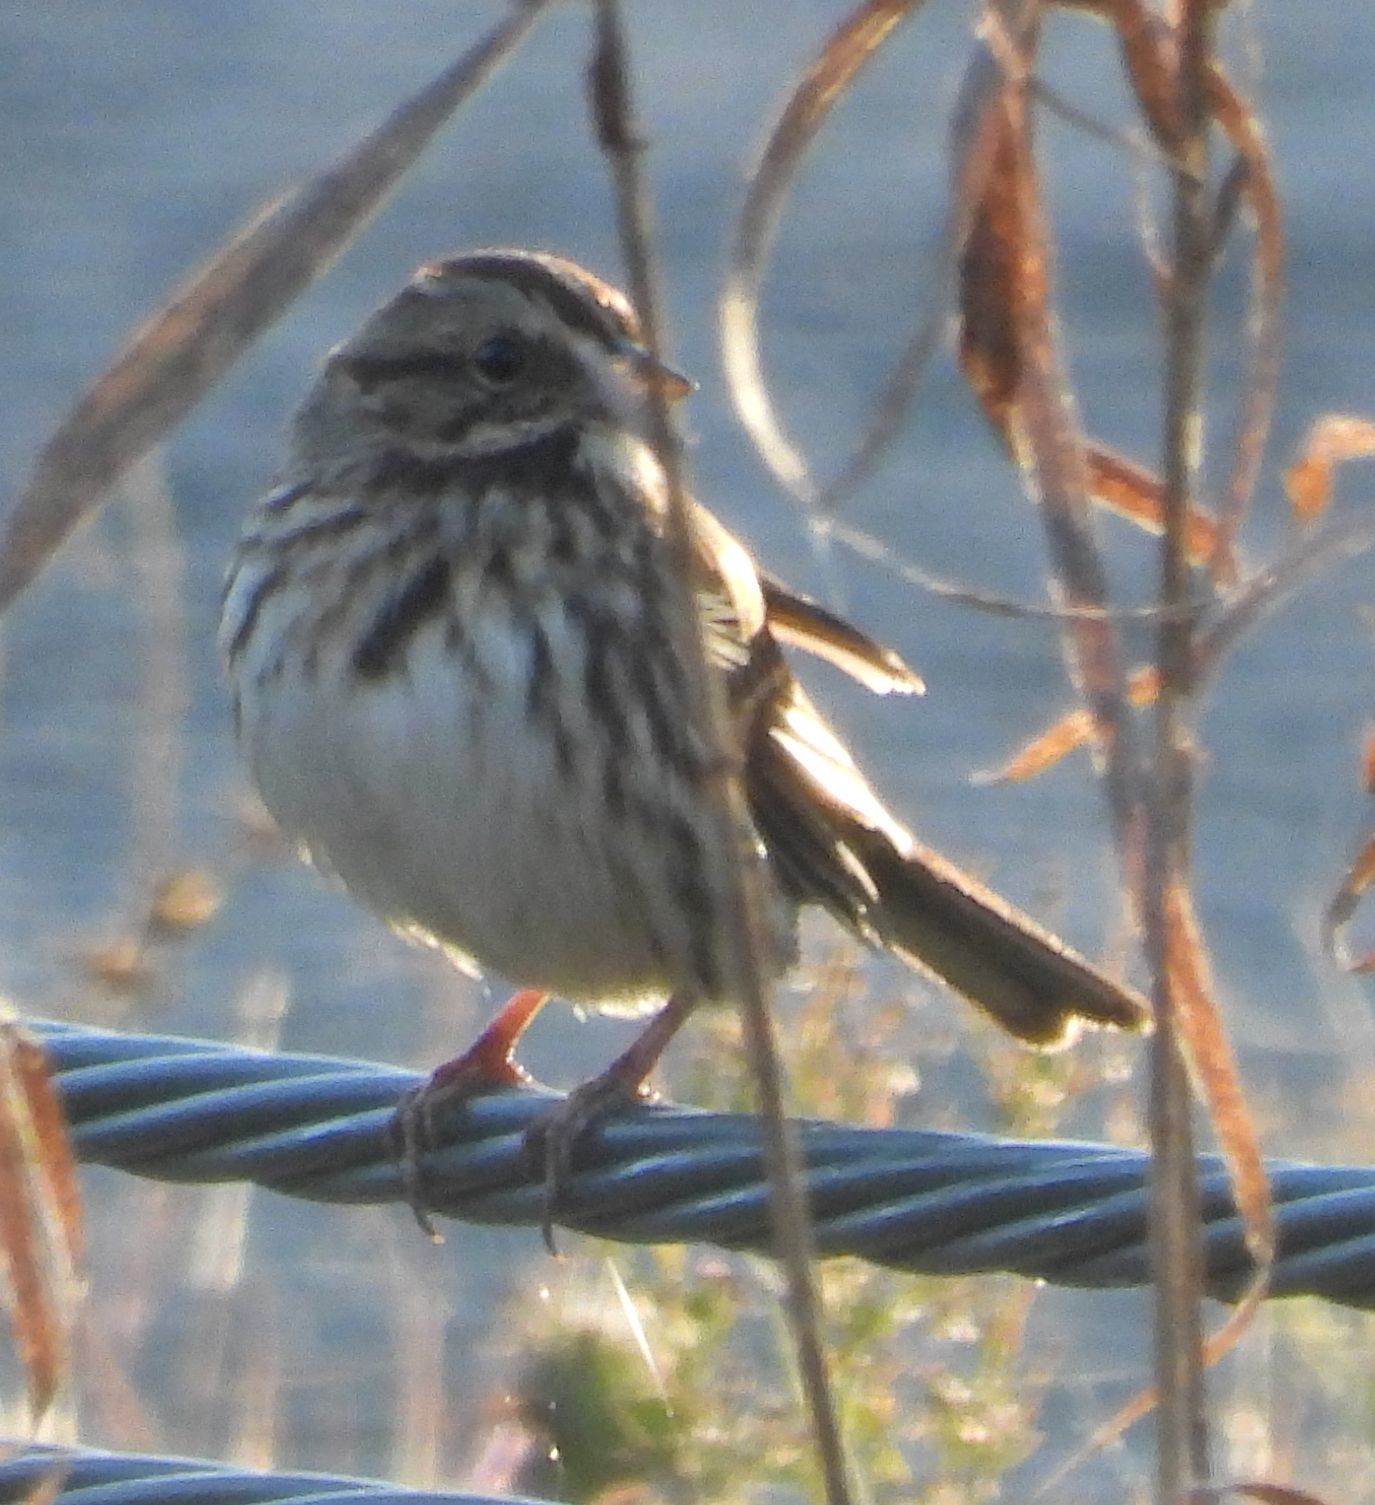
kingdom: Animalia
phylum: Chordata
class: Aves
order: Passeriformes
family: Passerellidae
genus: Melospiza
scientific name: Melospiza melodia
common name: Song sparrow
